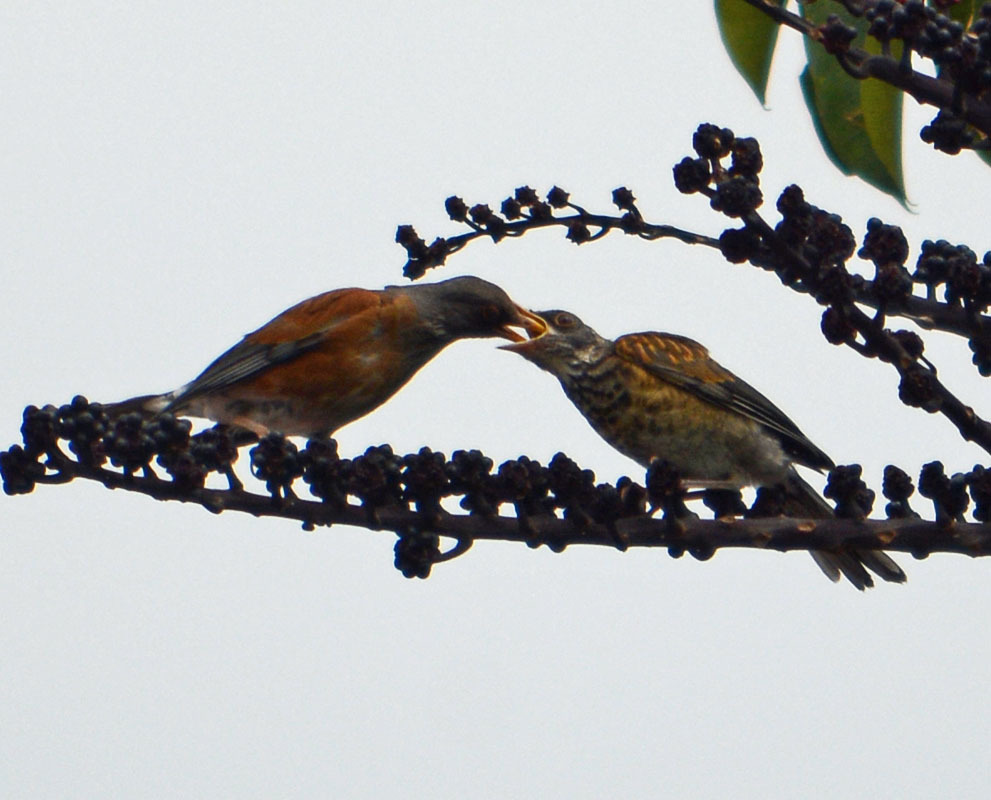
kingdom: Animalia
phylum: Chordata
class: Aves
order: Passeriformes
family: Turdidae
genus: Turdus
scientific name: Turdus rufopalliatus
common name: Rufous-backed robin
